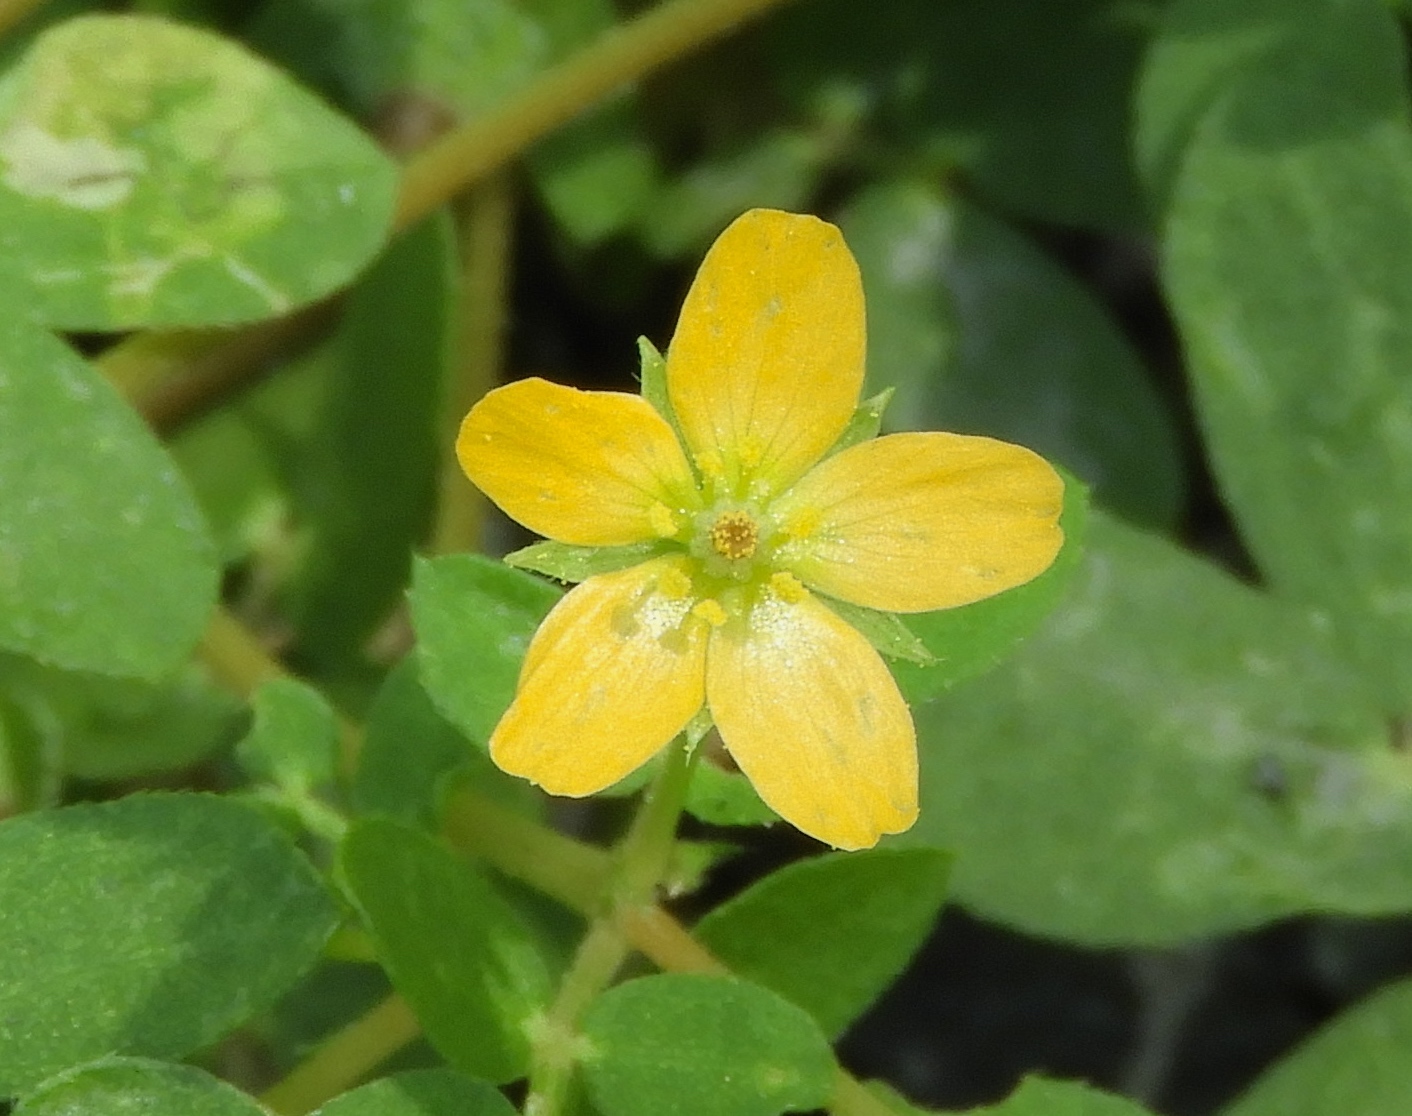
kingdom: Plantae
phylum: Tracheophyta
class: Magnoliopsida
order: Zygophyllales
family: Zygophyllaceae
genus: Kallstroemia
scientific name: Kallstroemia californica
